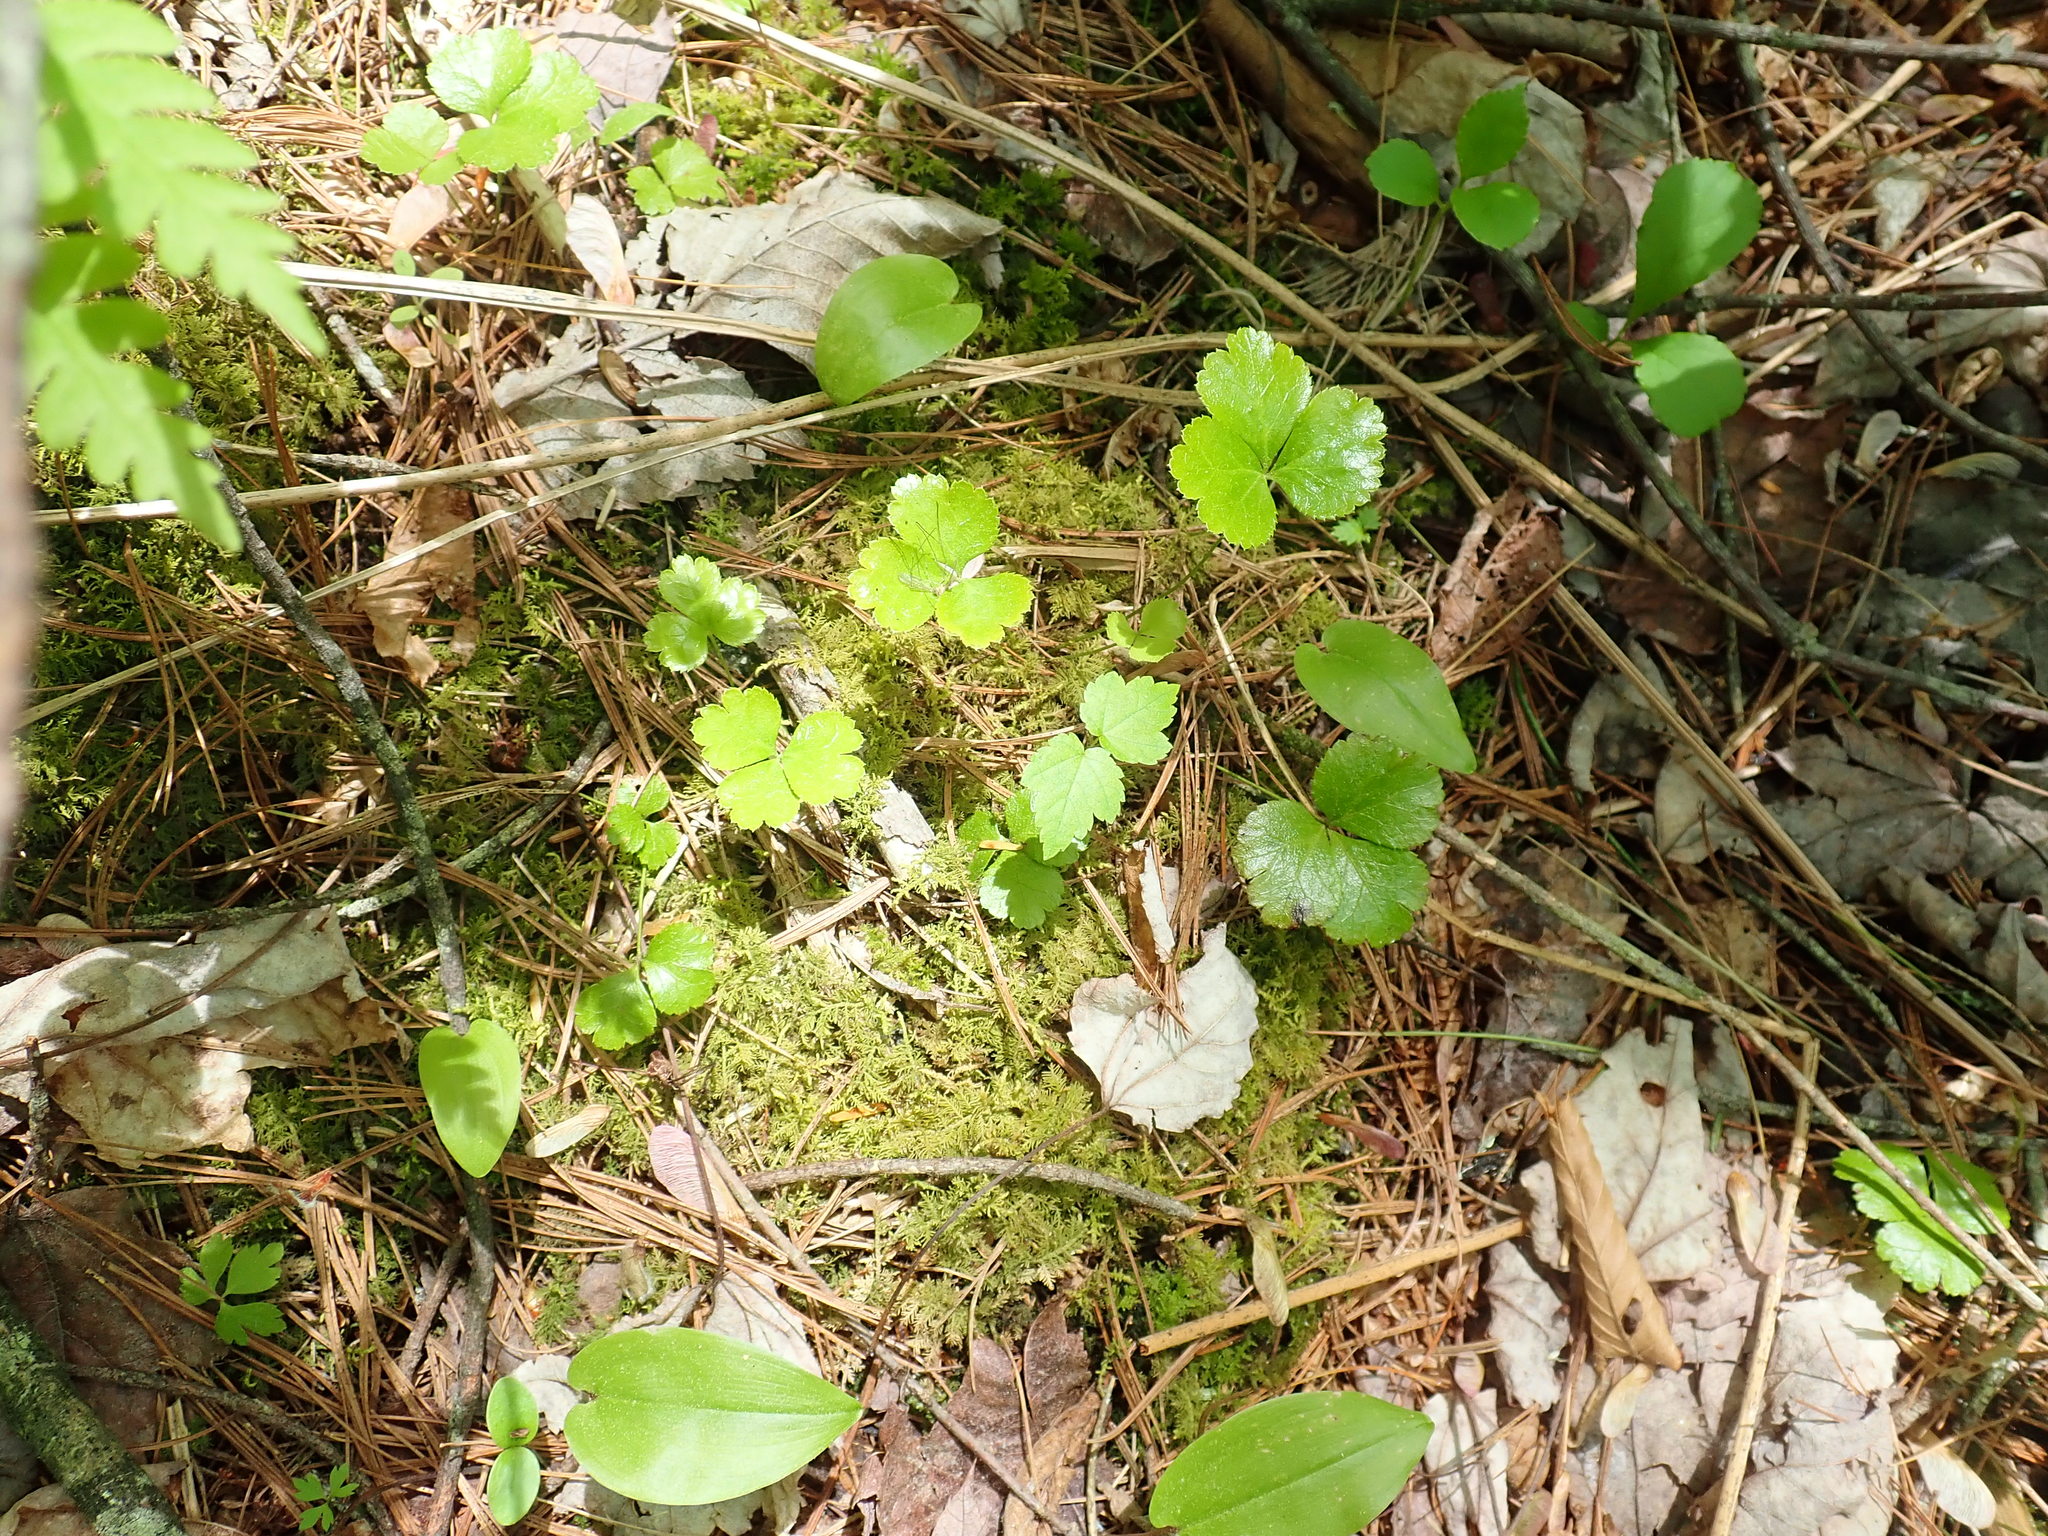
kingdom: Plantae
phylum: Tracheophyta
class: Magnoliopsida
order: Ranunculales
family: Ranunculaceae
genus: Coptis
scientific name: Coptis trifolia
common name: Canker-root
